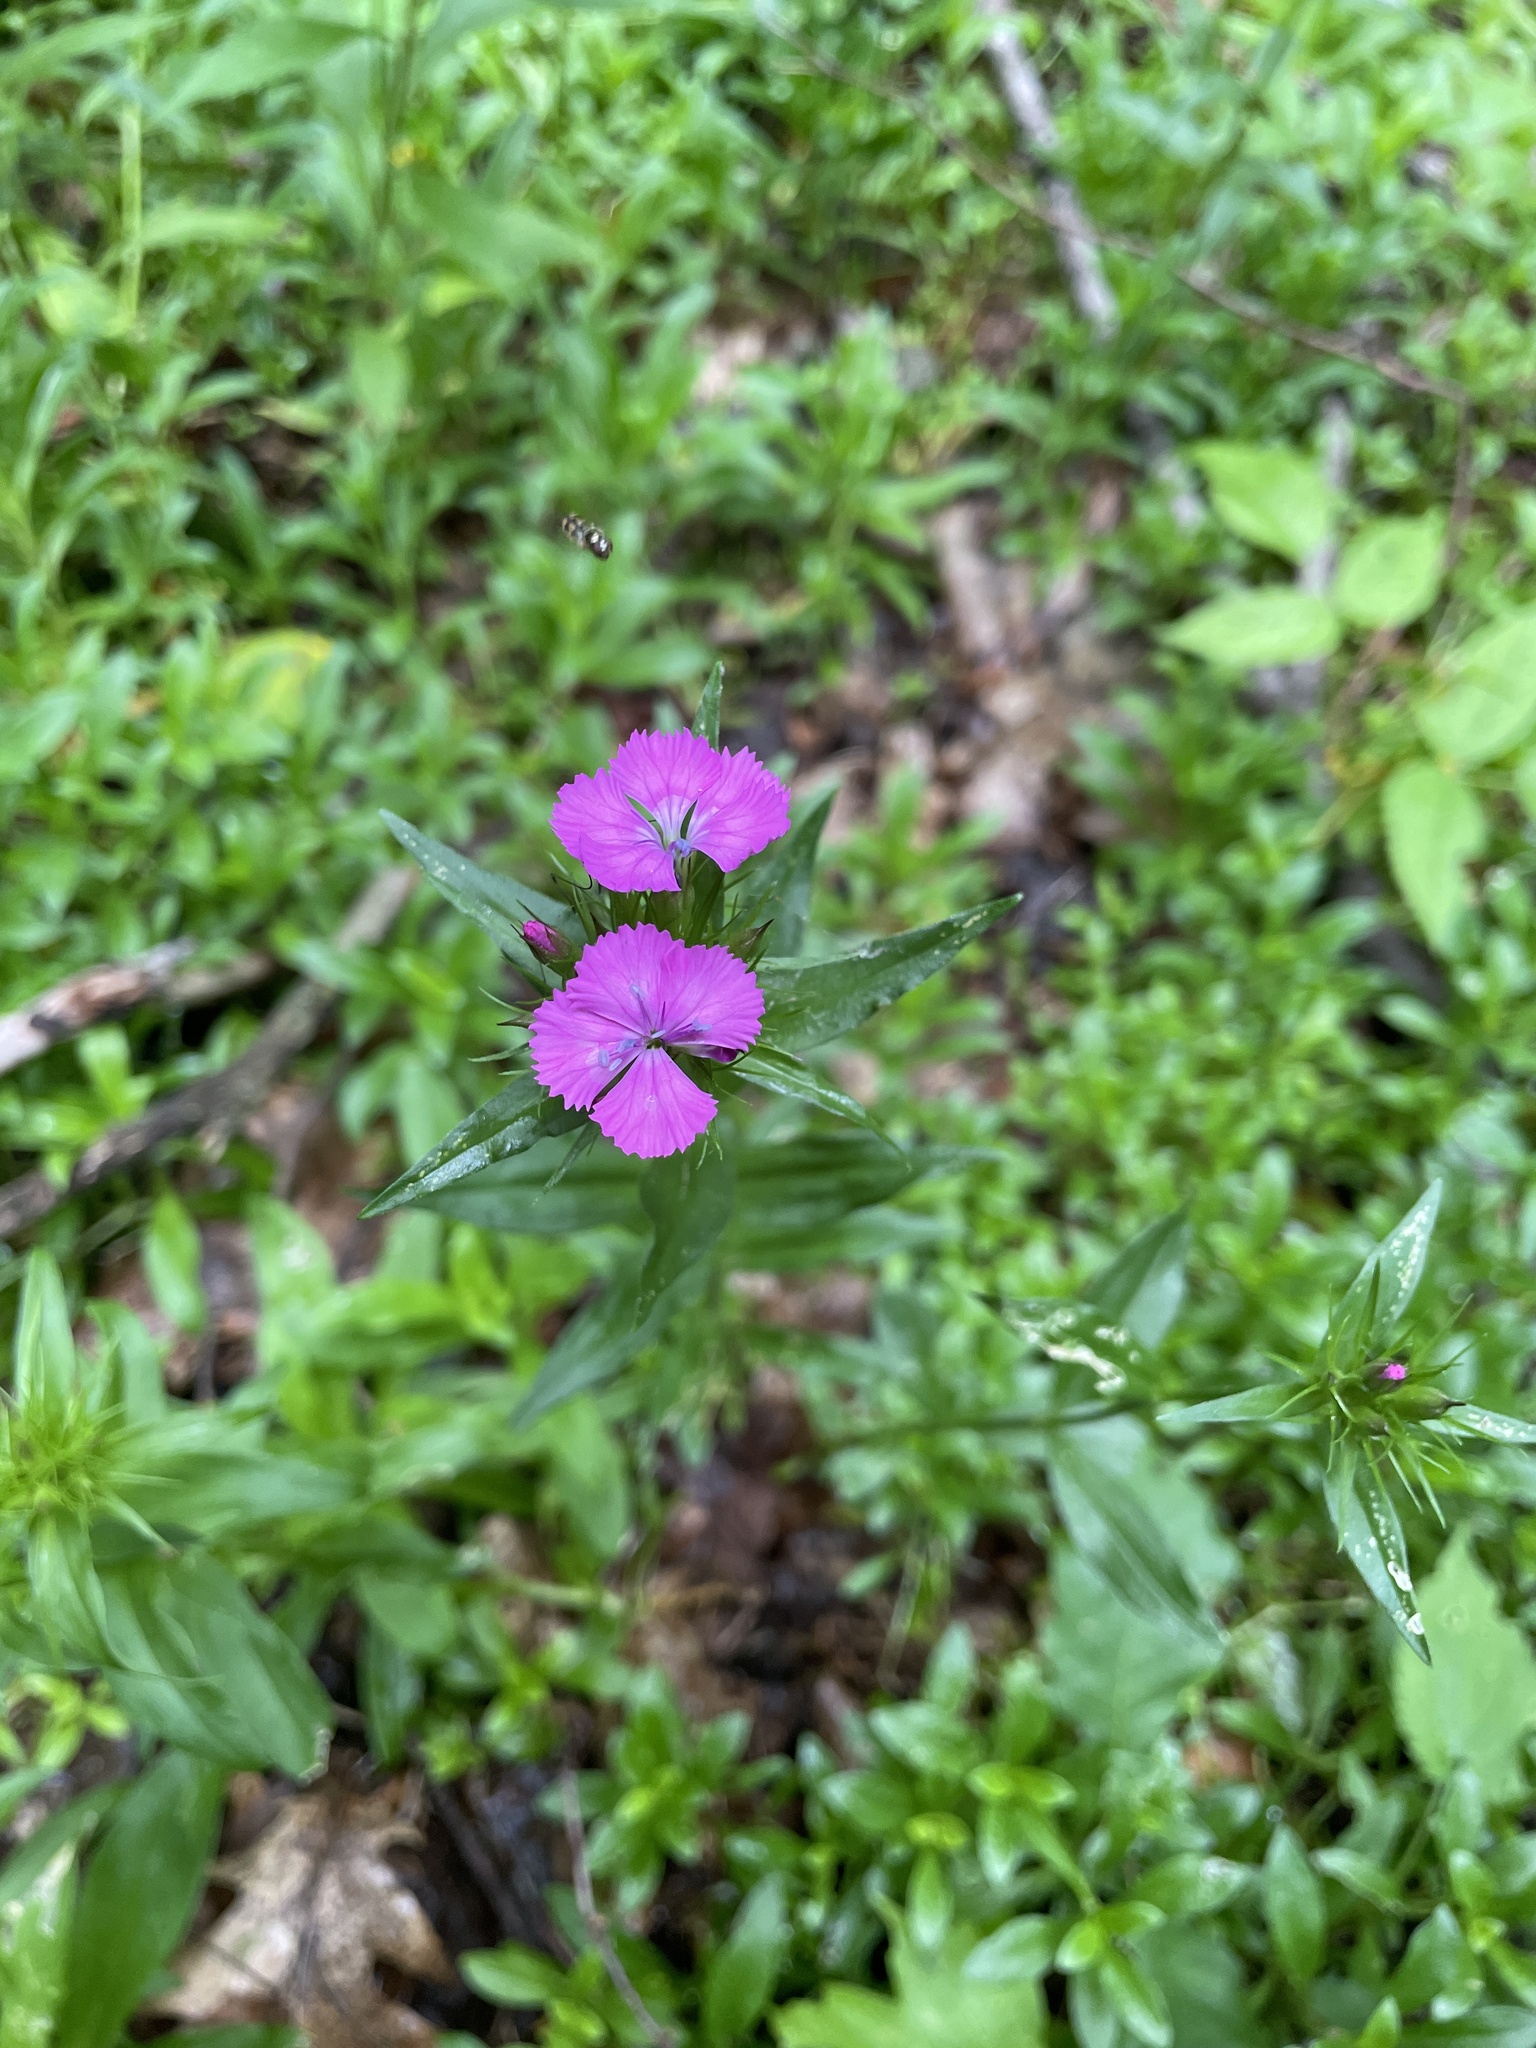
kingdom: Plantae
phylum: Tracheophyta
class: Magnoliopsida
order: Caryophyllales
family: Caryophyllaceae
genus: Dianthus
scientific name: Dianthus barbatus
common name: Sweet-william
